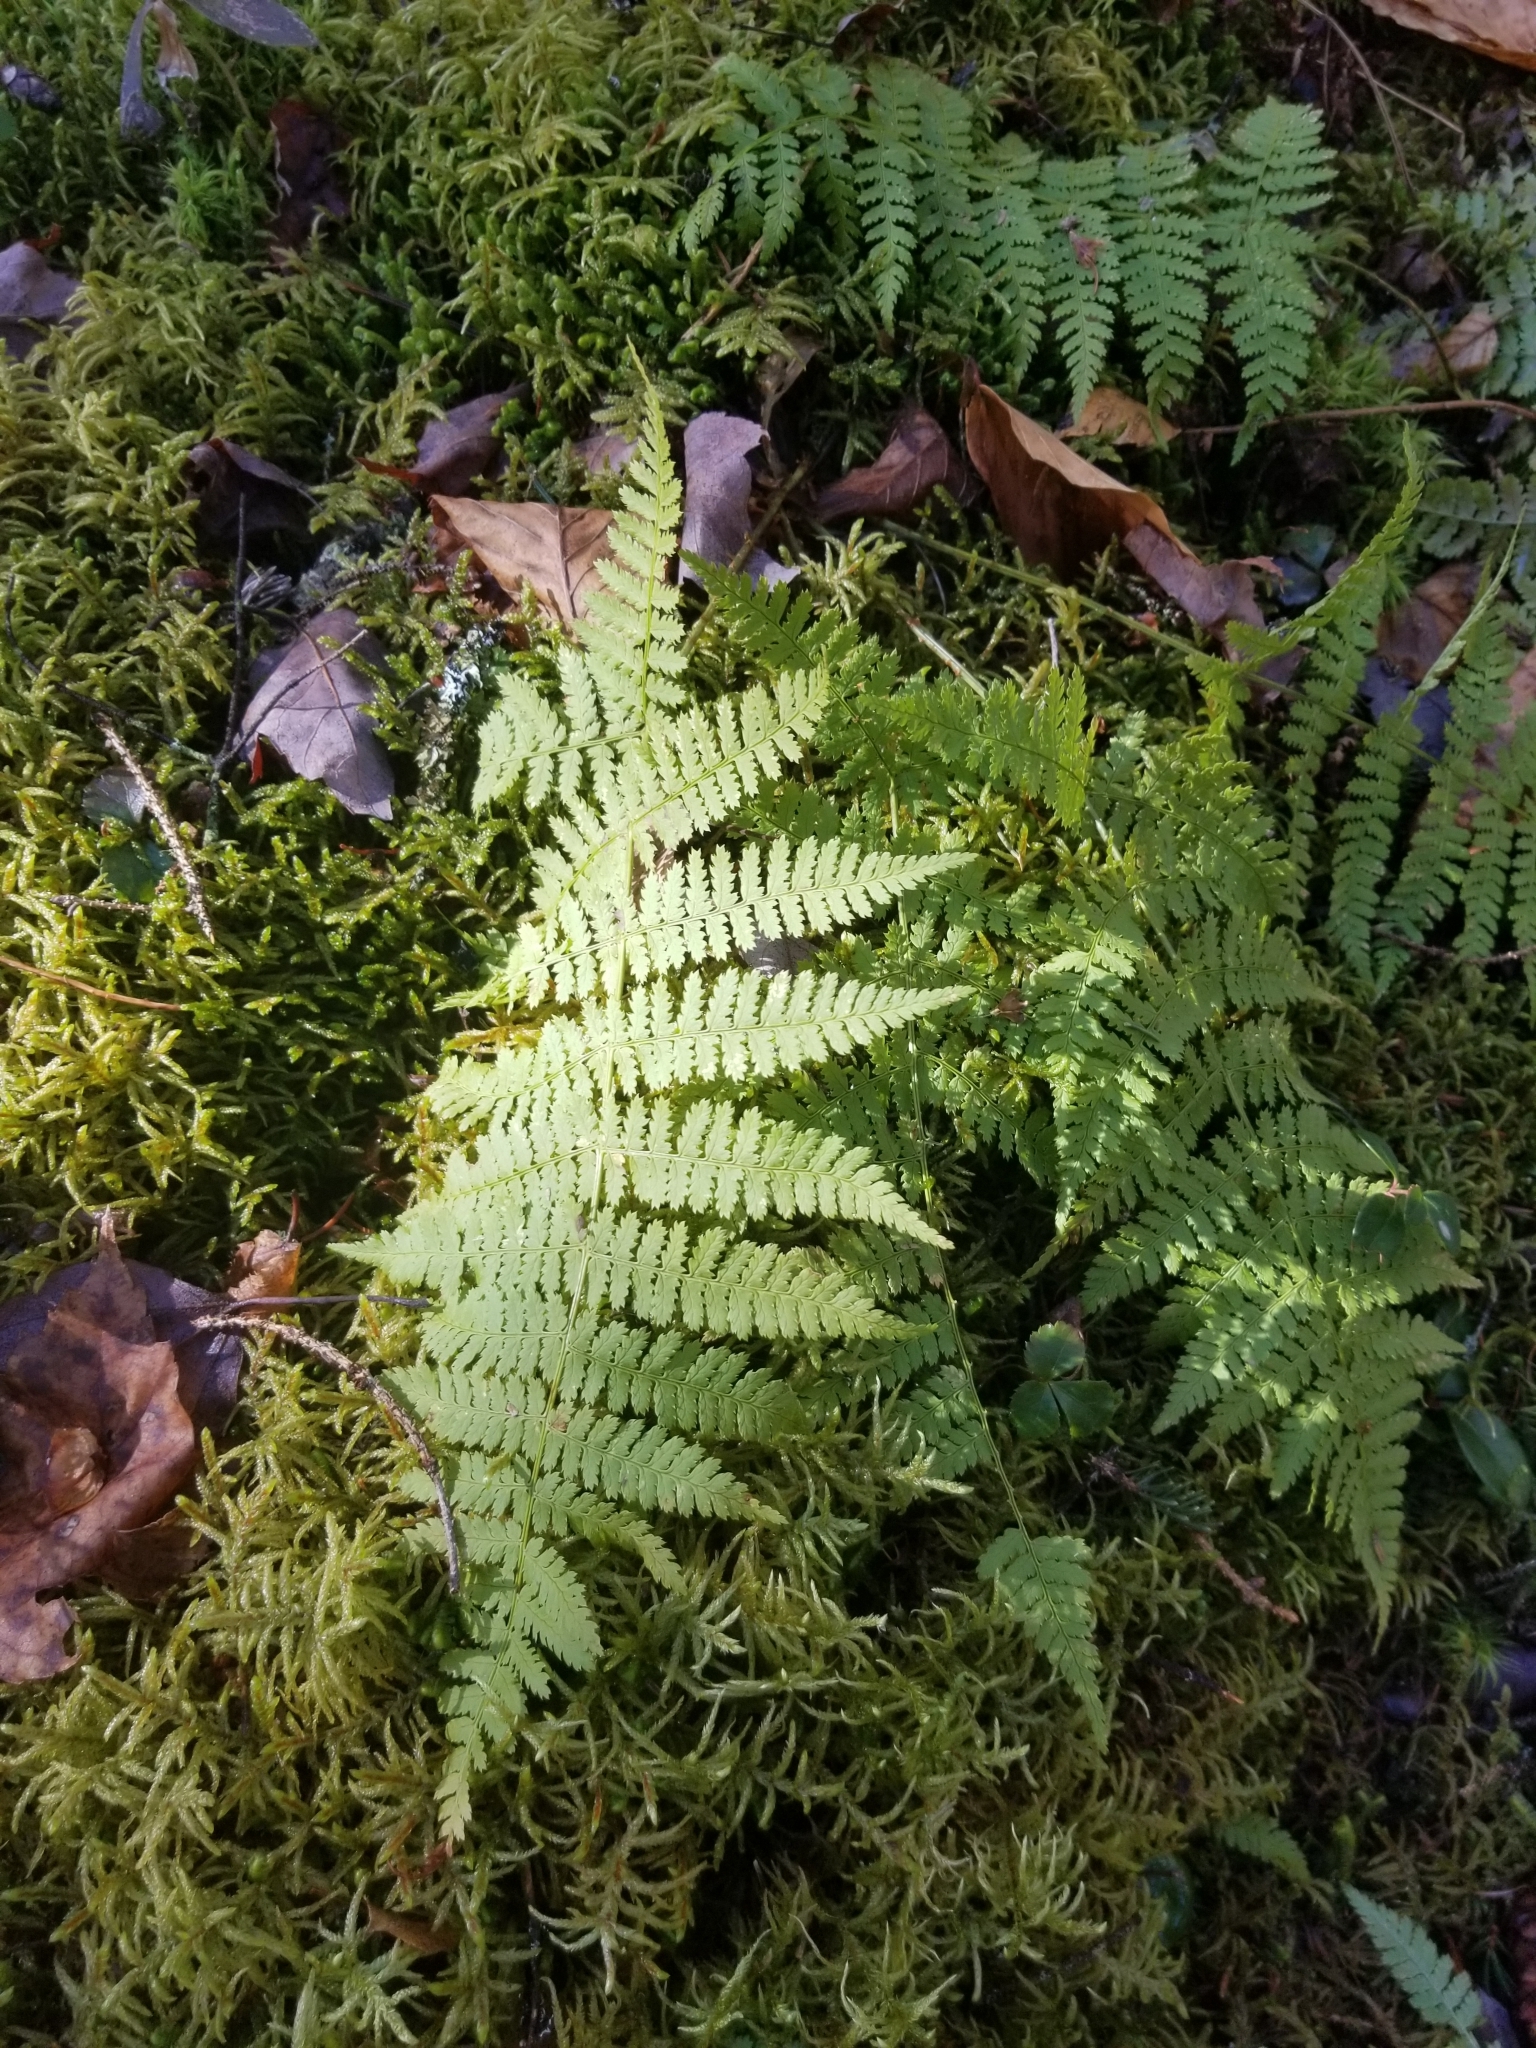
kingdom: Plantae
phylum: Tracheophyta
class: Polypodiopsida
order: Polypodiales
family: Dryopteridaceae
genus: Dryopteris
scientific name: Dryopteris intermedia
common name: Evergreen wood fern
